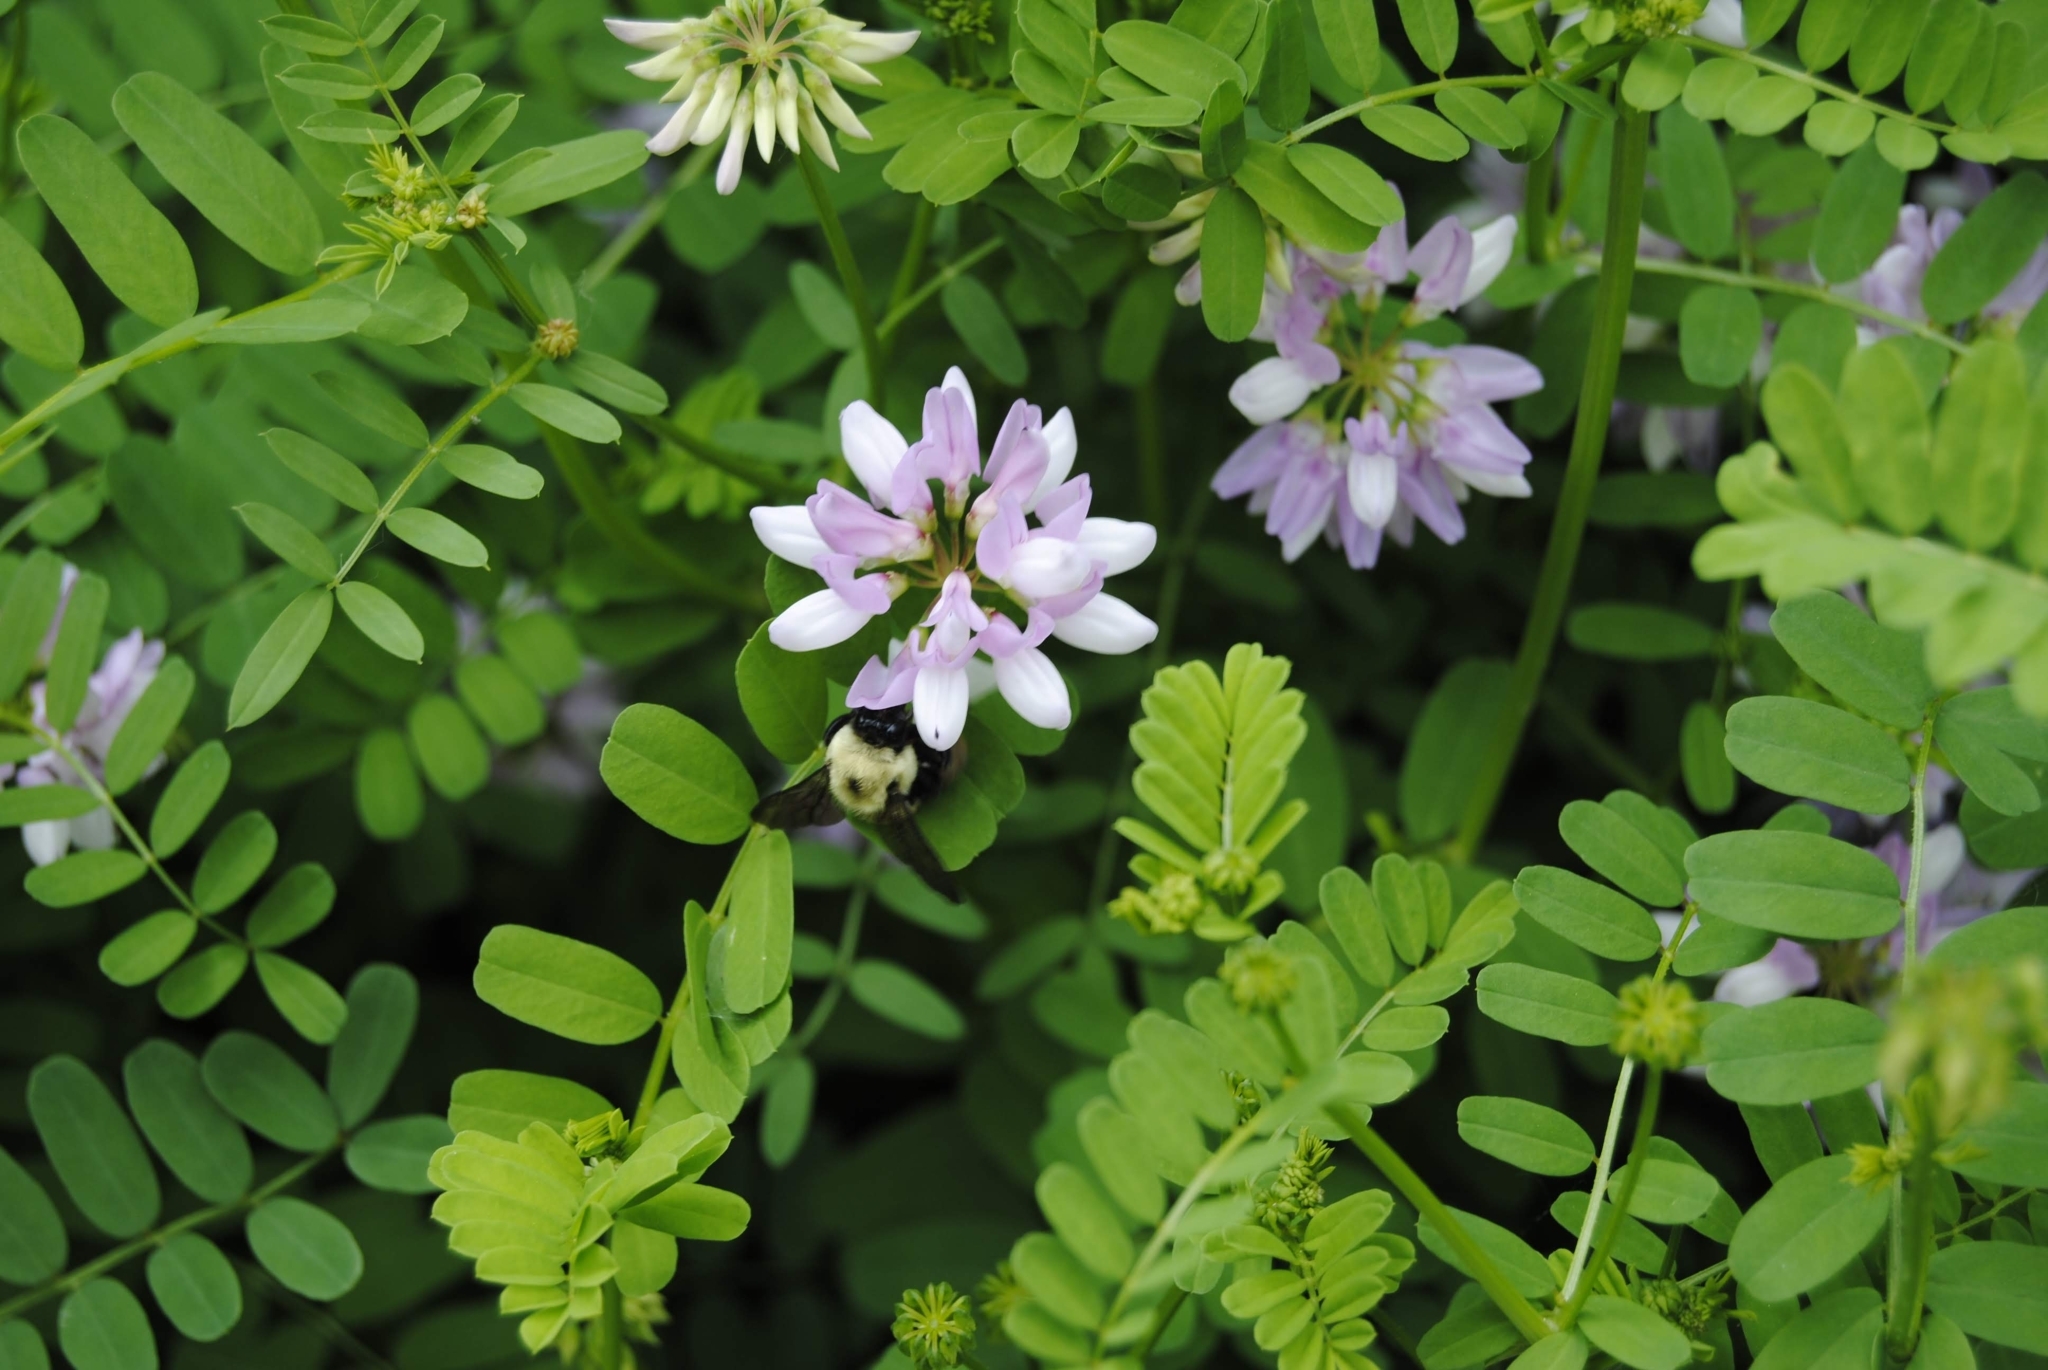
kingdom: Plantae
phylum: Tracheophyta
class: Magnoliopsida
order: Fabales
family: Fabaceae
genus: Coronilla
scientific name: Coronilla varia
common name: Crownvetch
